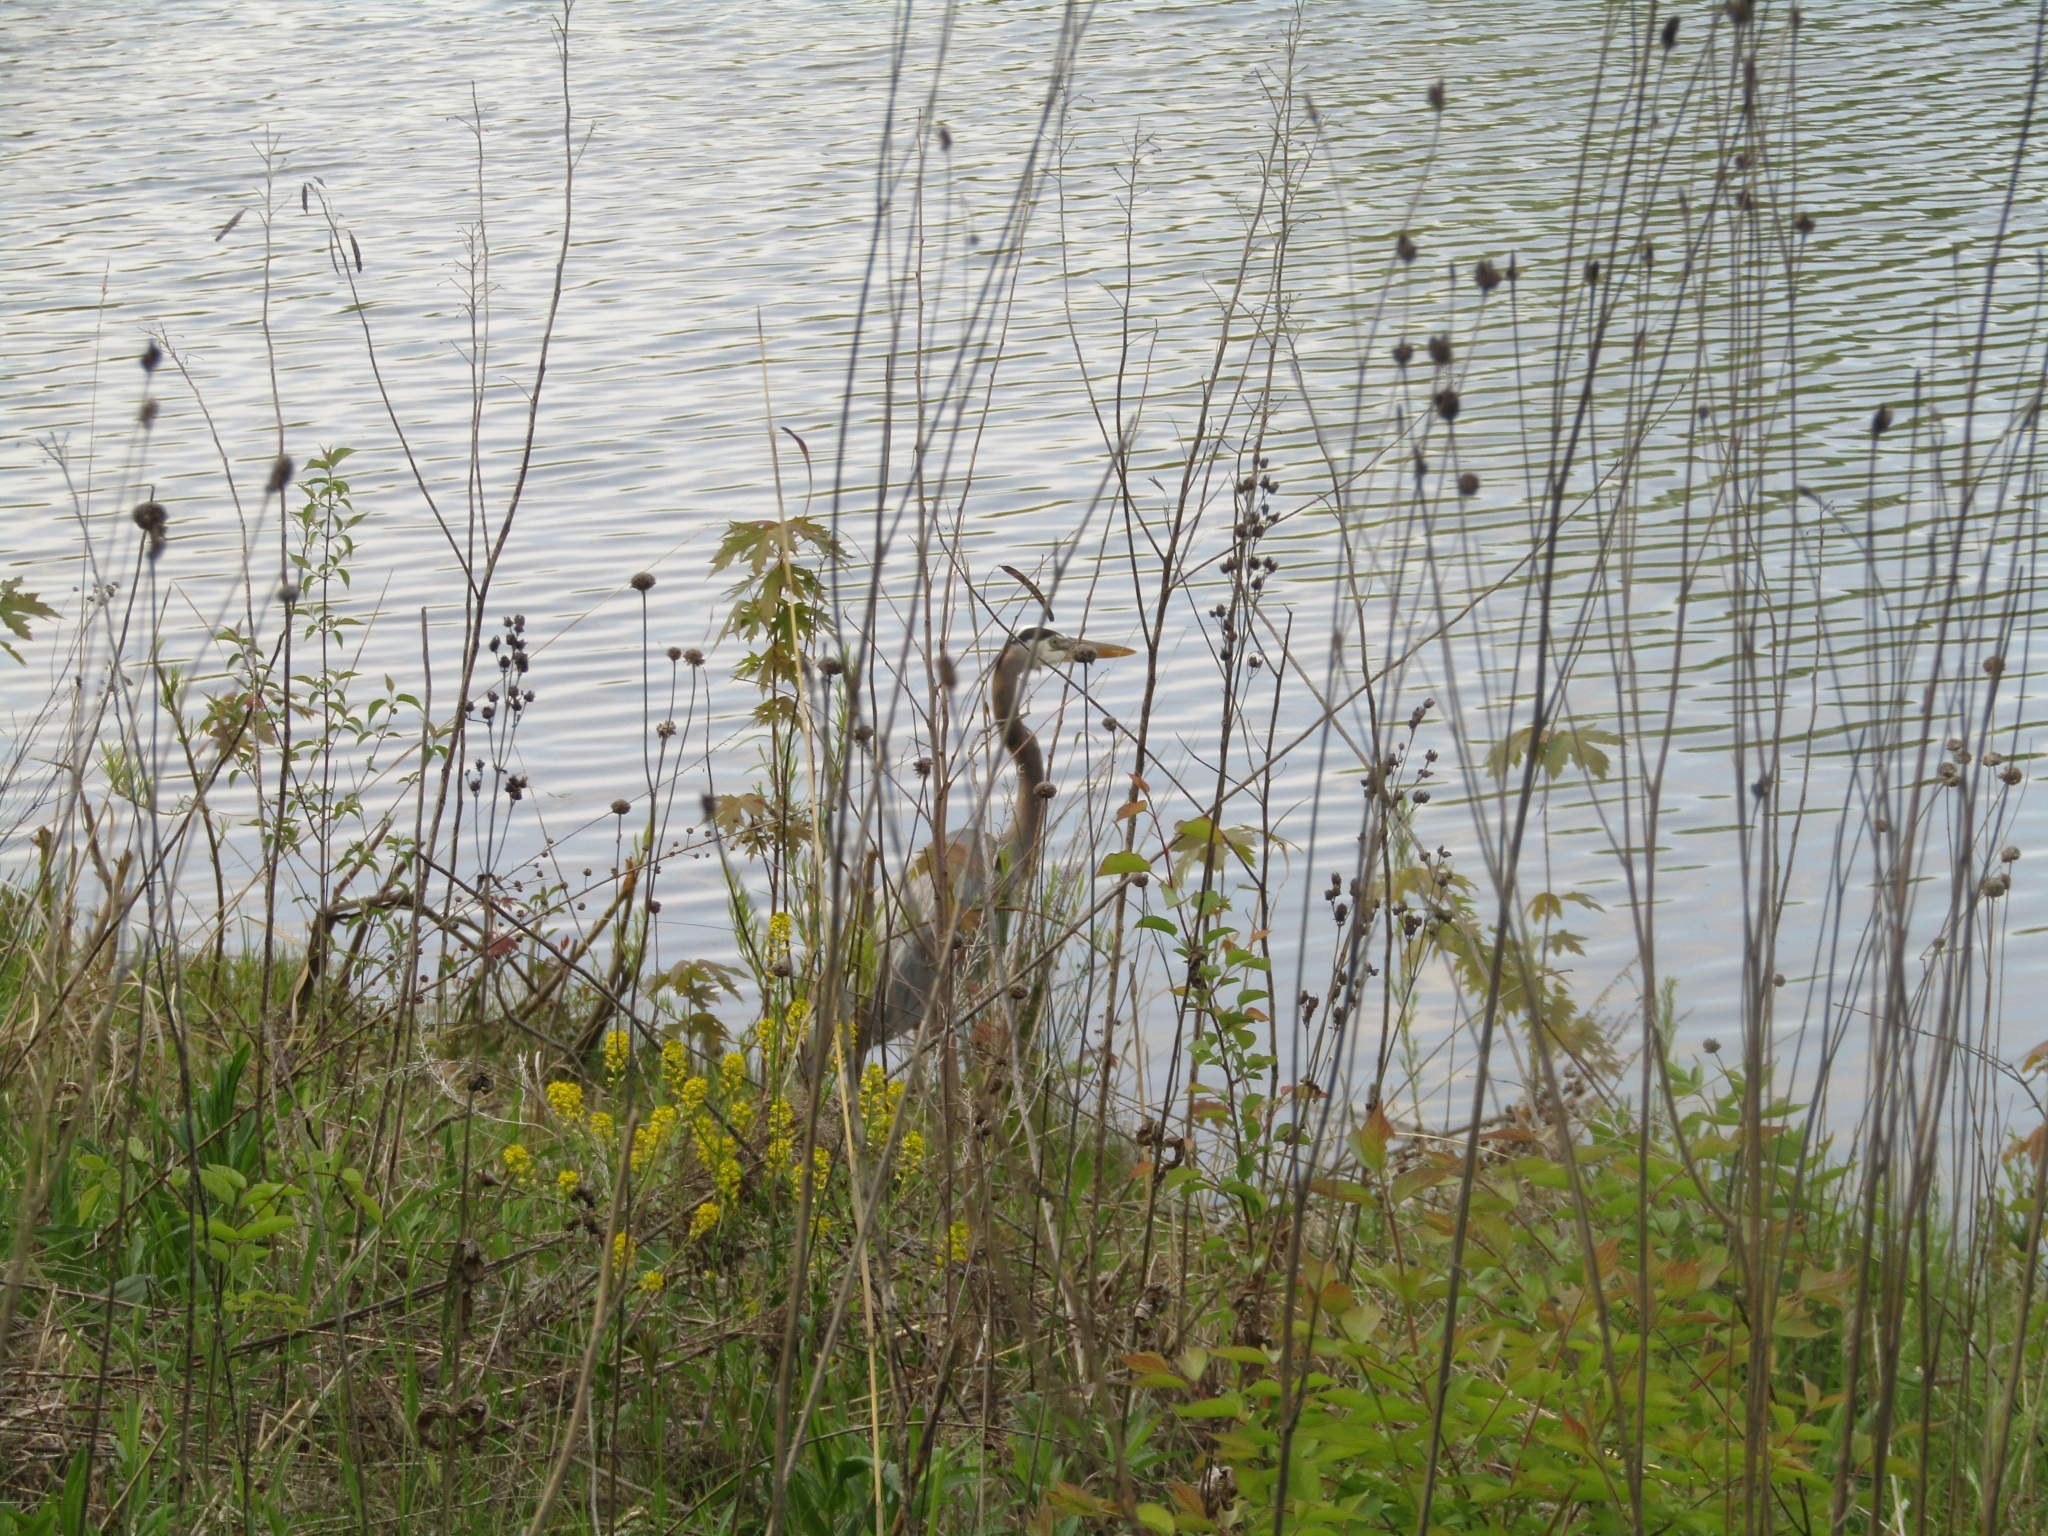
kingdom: Animalia
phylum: Chordata
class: Aves
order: Pelecaniformes
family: Ardeidae
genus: Ardea
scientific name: Ardea herodias
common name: Great blue heron
